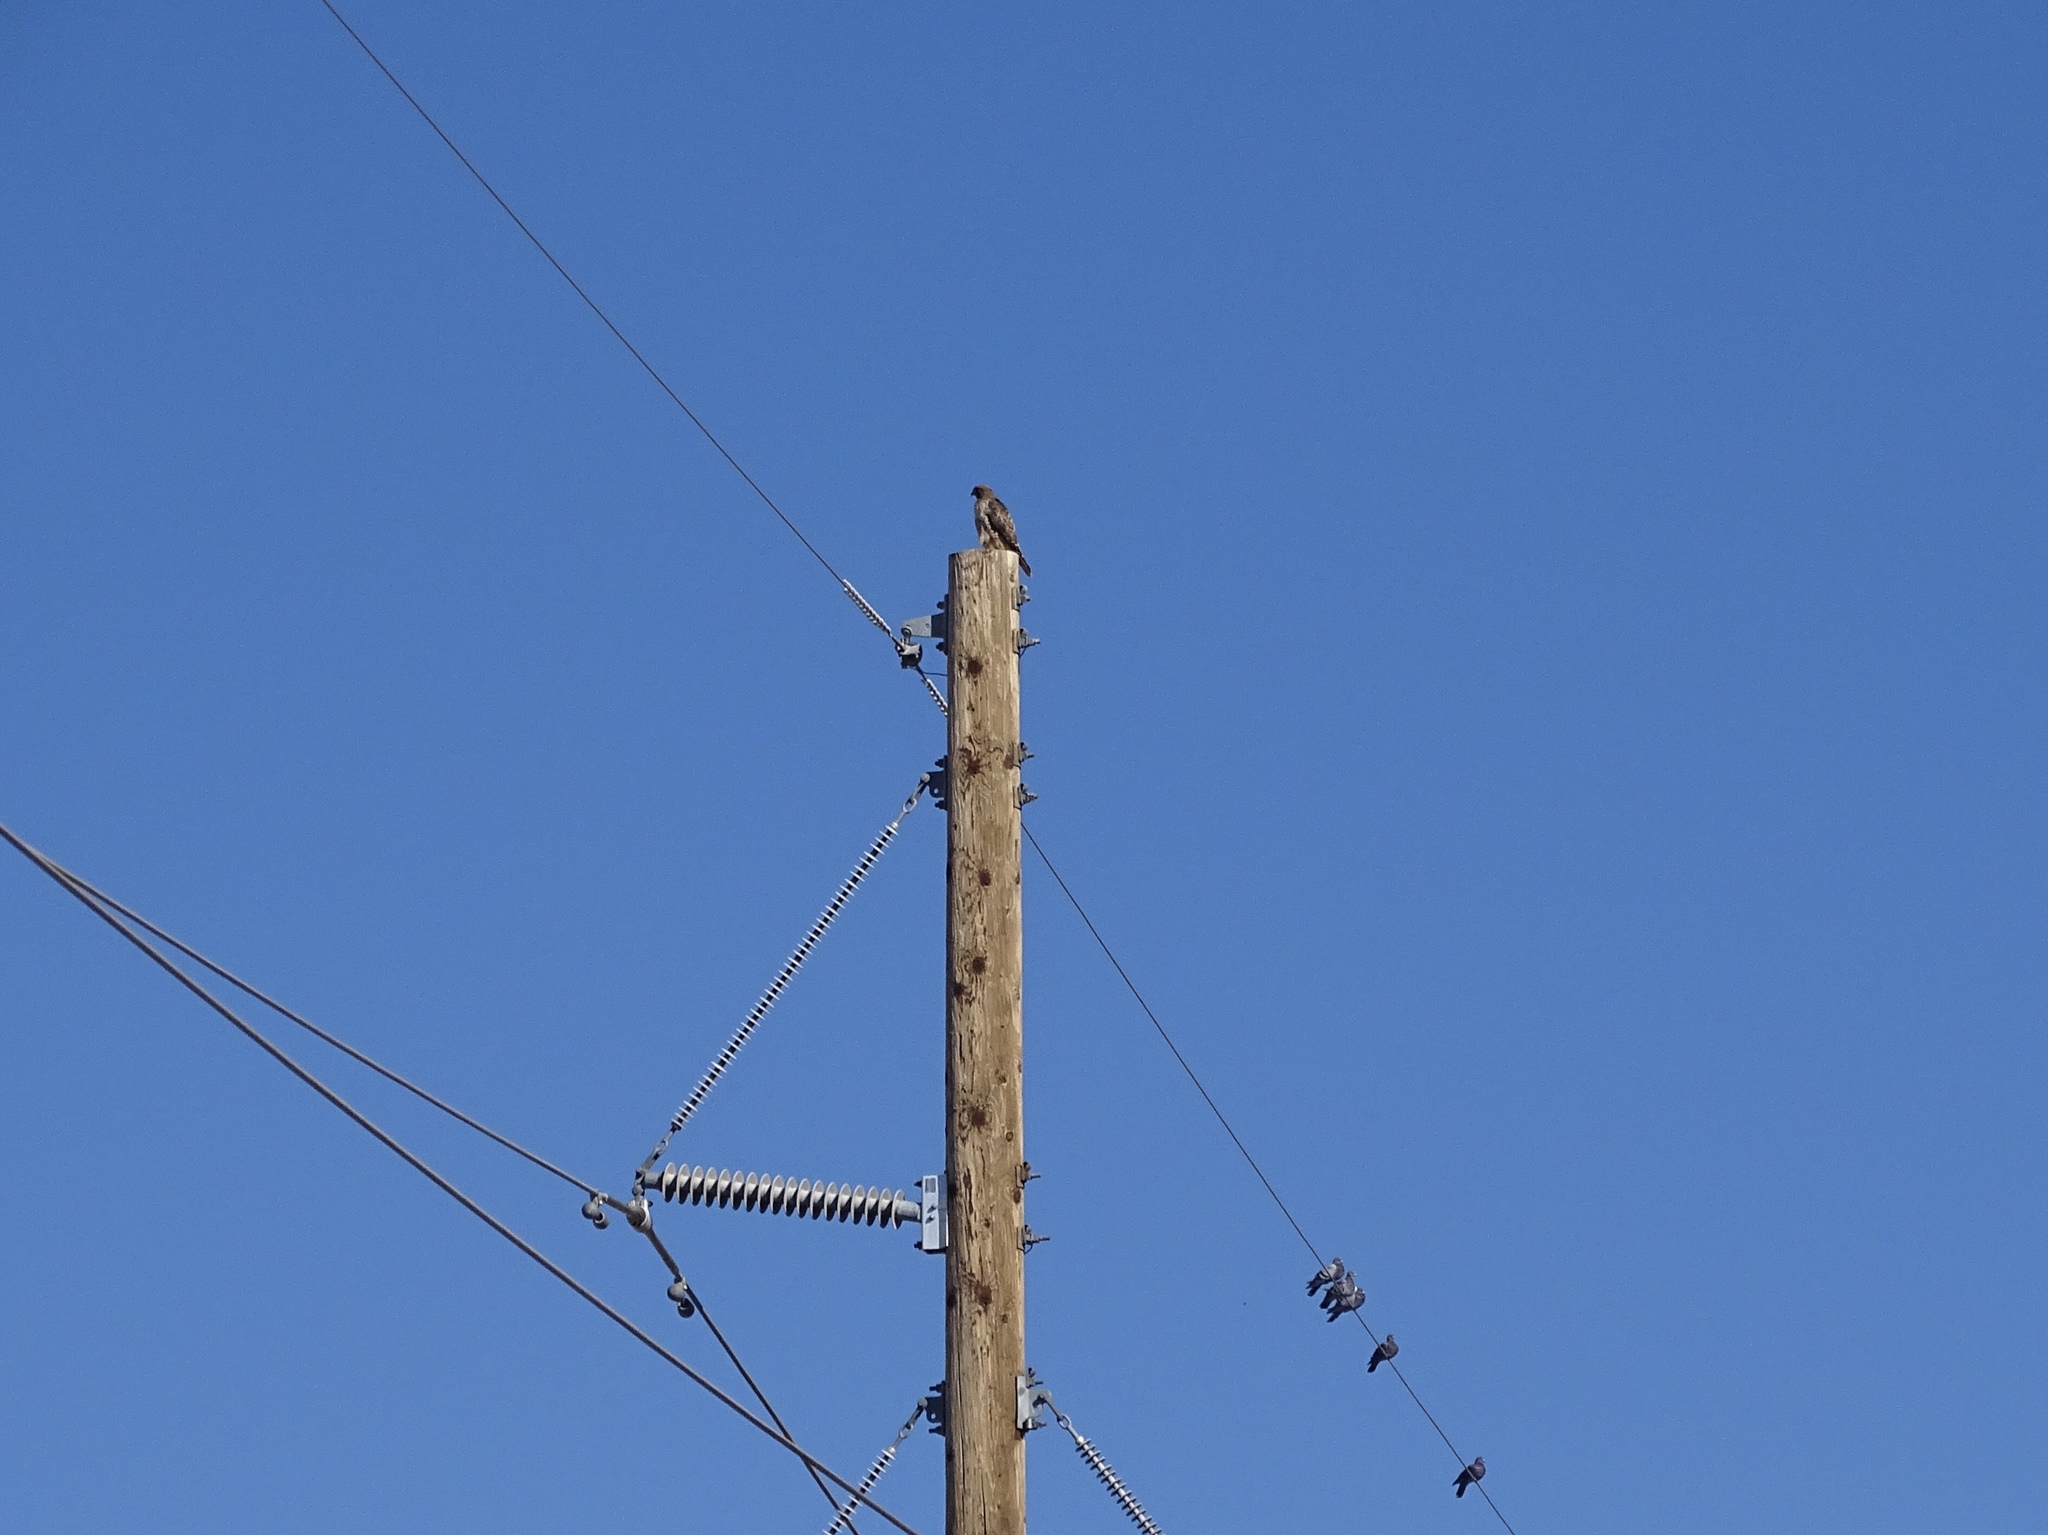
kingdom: Animalia
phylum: Chordata
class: Aves
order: Accipitriformes
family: Accipitridae
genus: Buteo
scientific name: Buteo jamaicensis
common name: Red-tailed hawk
